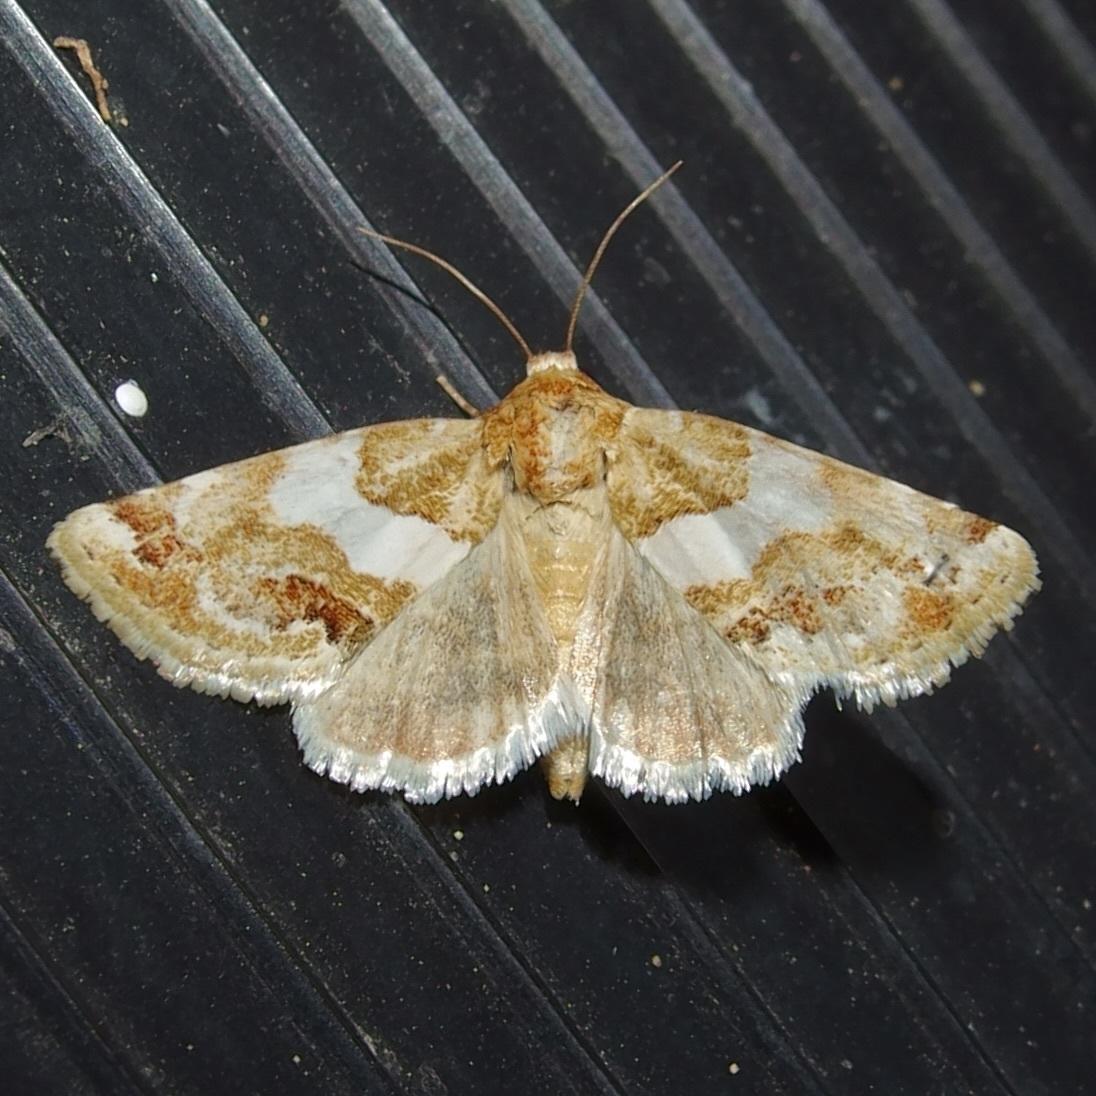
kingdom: Animalia
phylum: Arthropoda
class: Insecta
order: Lepidoptera
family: Noctuidae
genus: Schinia
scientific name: Schinia argentifascia
